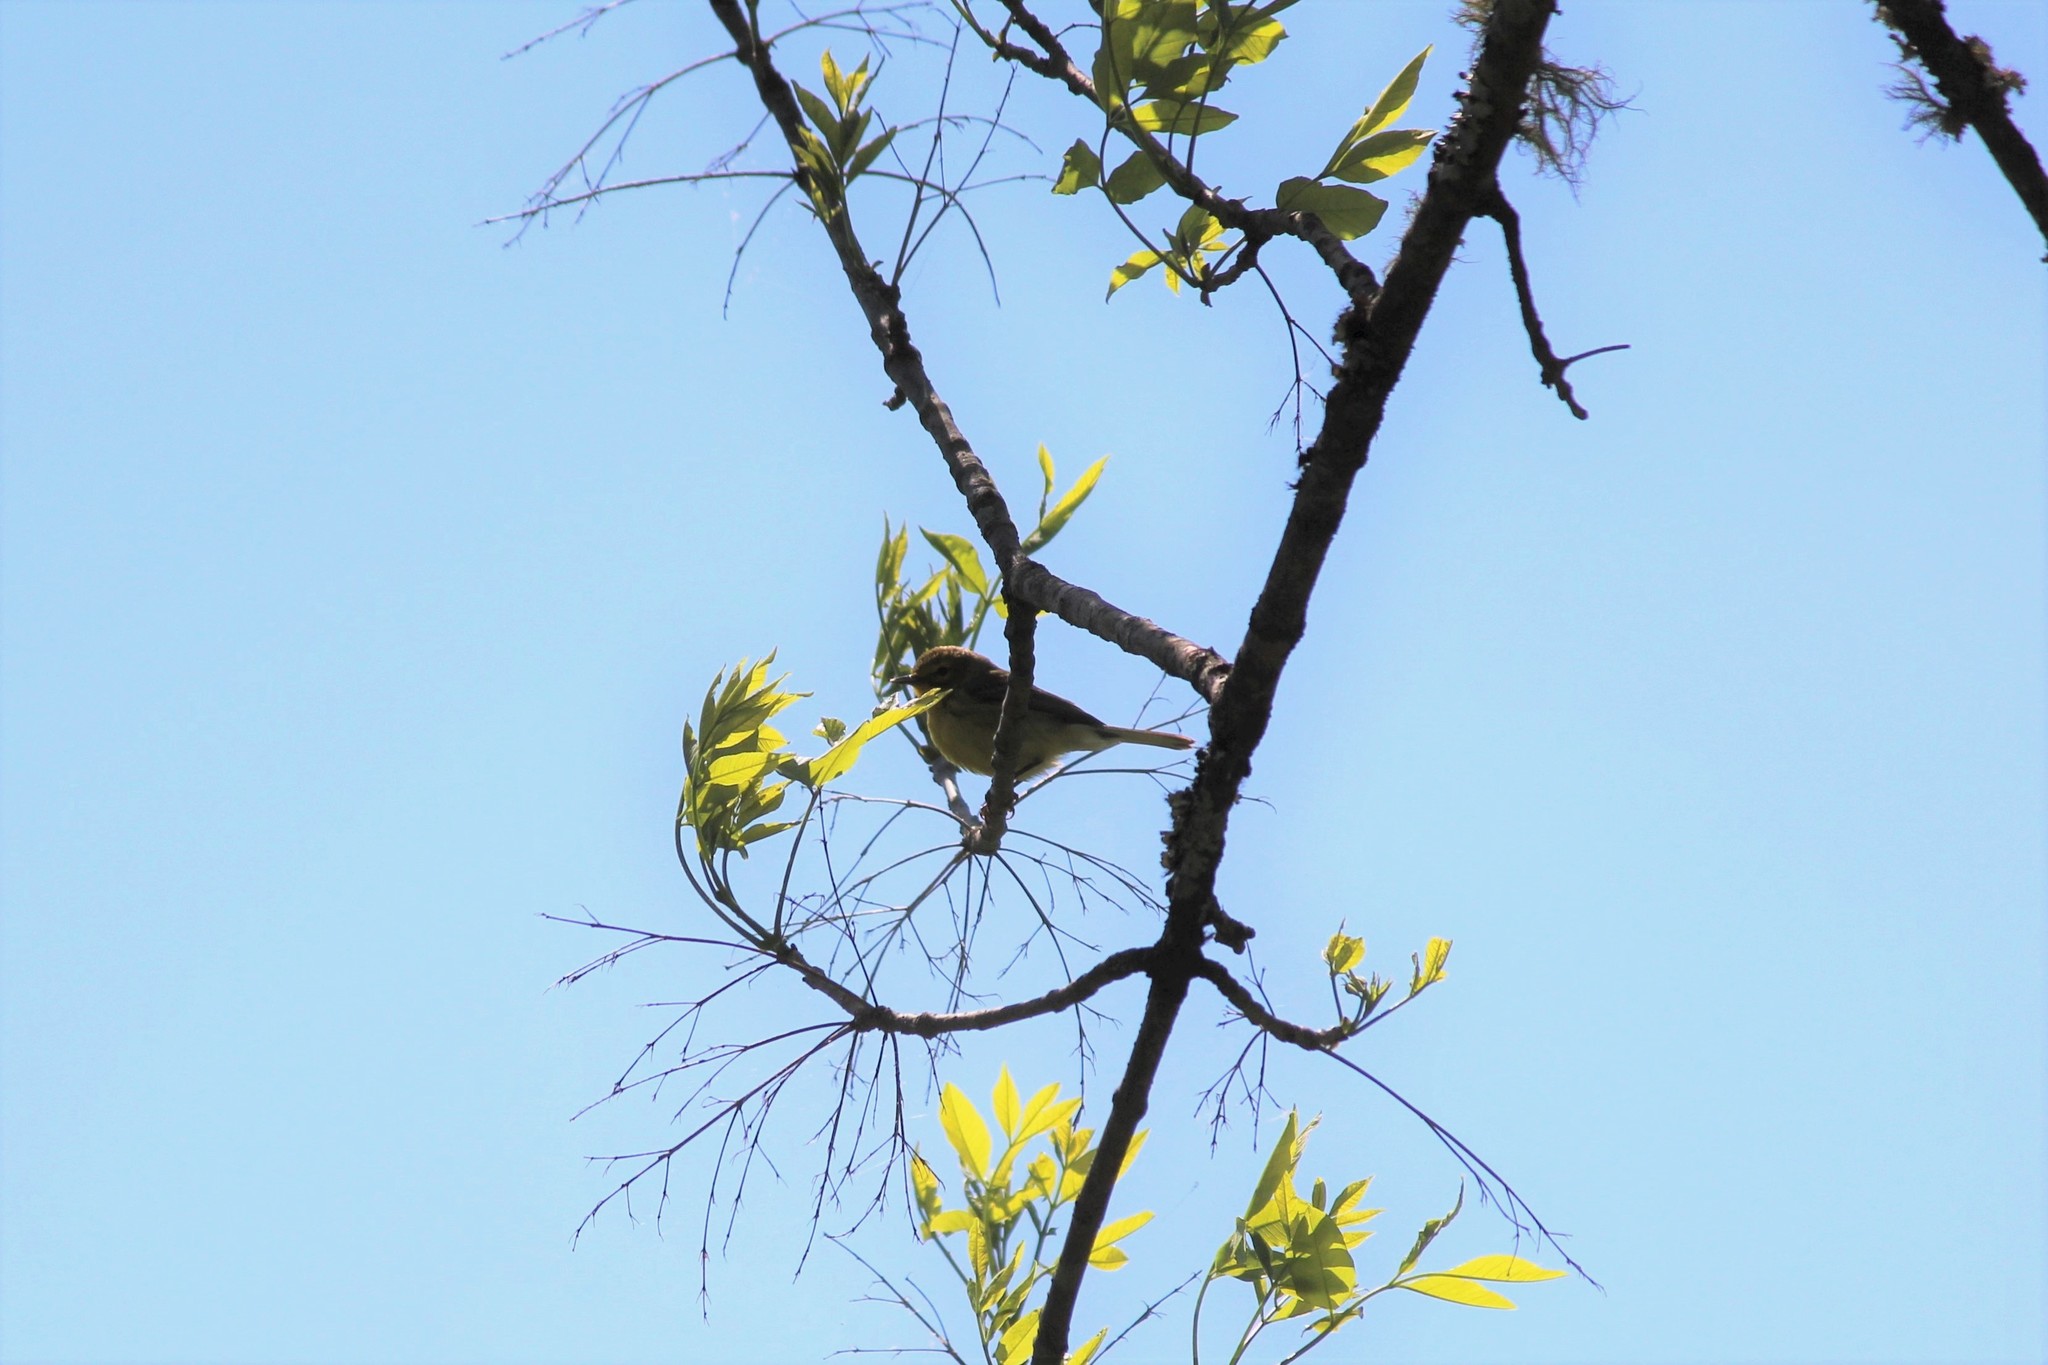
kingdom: Animalia
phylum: Chordata
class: Aves
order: Passeriformes
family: Parulidae
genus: Setophaga
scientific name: Setophaga discolor
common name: Prairie warbler
